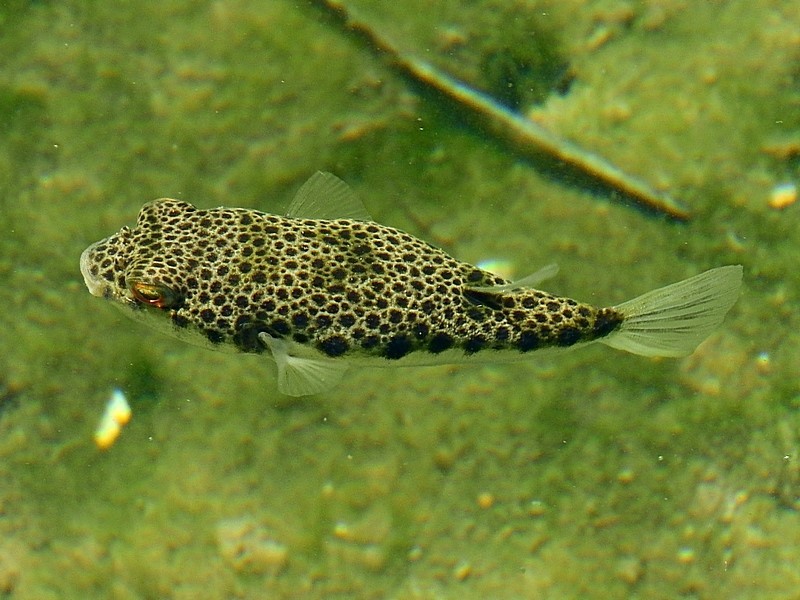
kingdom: Animalia
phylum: Chordata
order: Tetraodontiformes
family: Tetraodontidae
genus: Tetractenos
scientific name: Tetractenos hamiltoni
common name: Common toadfish
